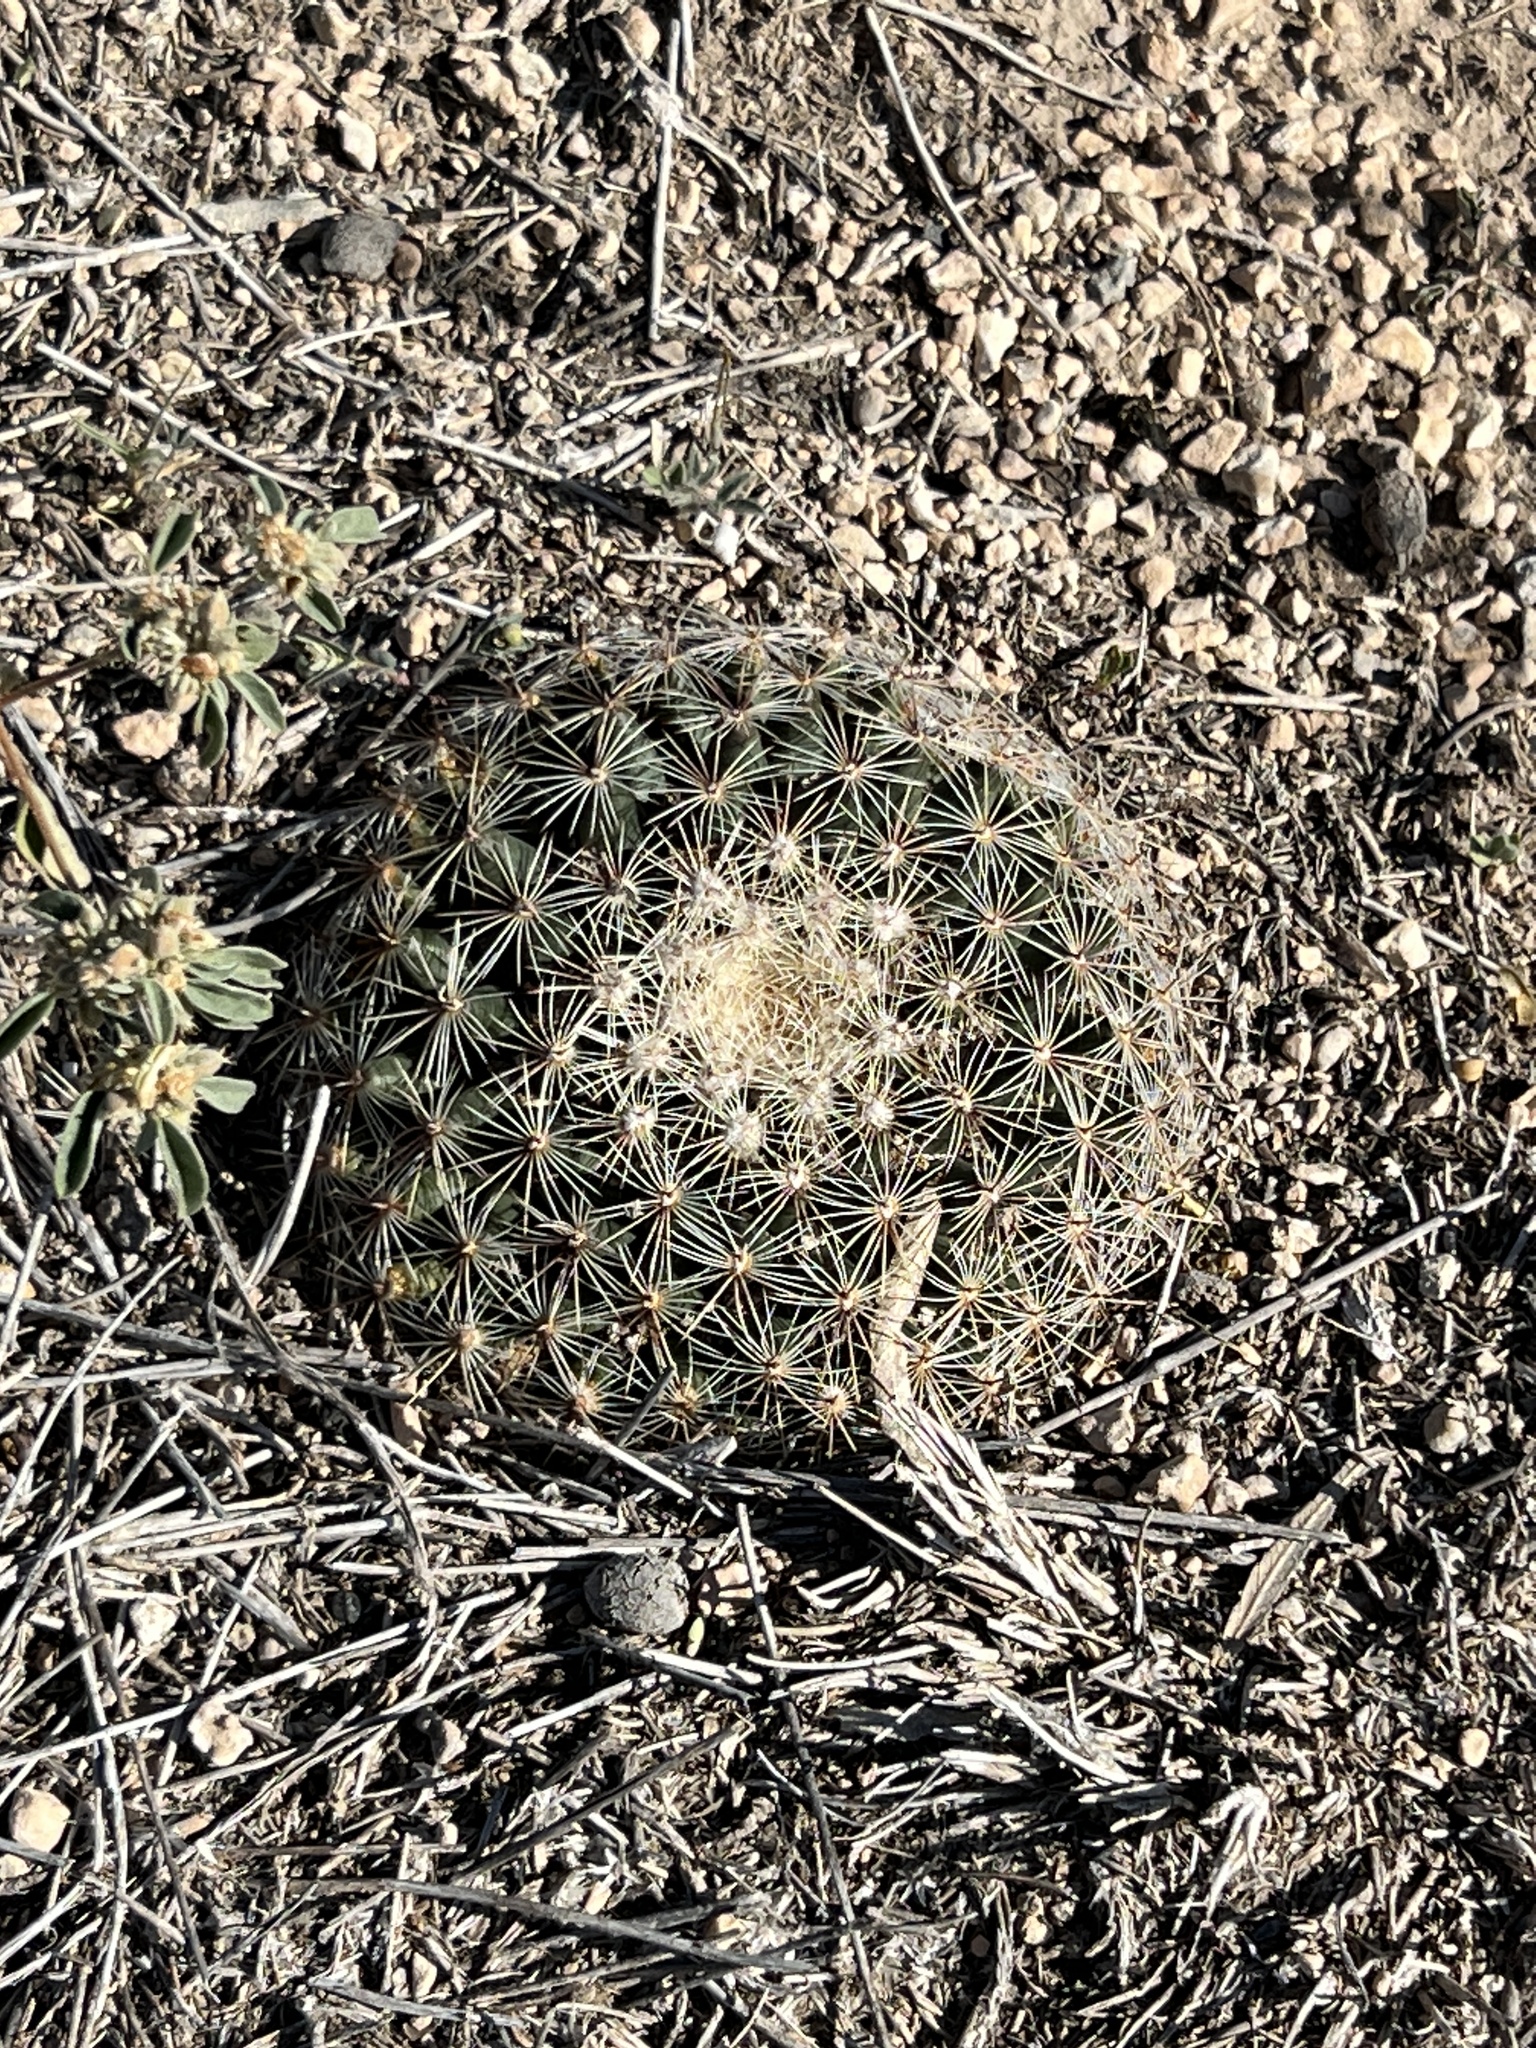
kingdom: Plantae
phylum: Tracheophyta
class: Magnoliopsida
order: Caryophyllales
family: Cactaceae
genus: Mammillaria
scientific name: Mammillaria heyderi
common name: Little nipple cactus
